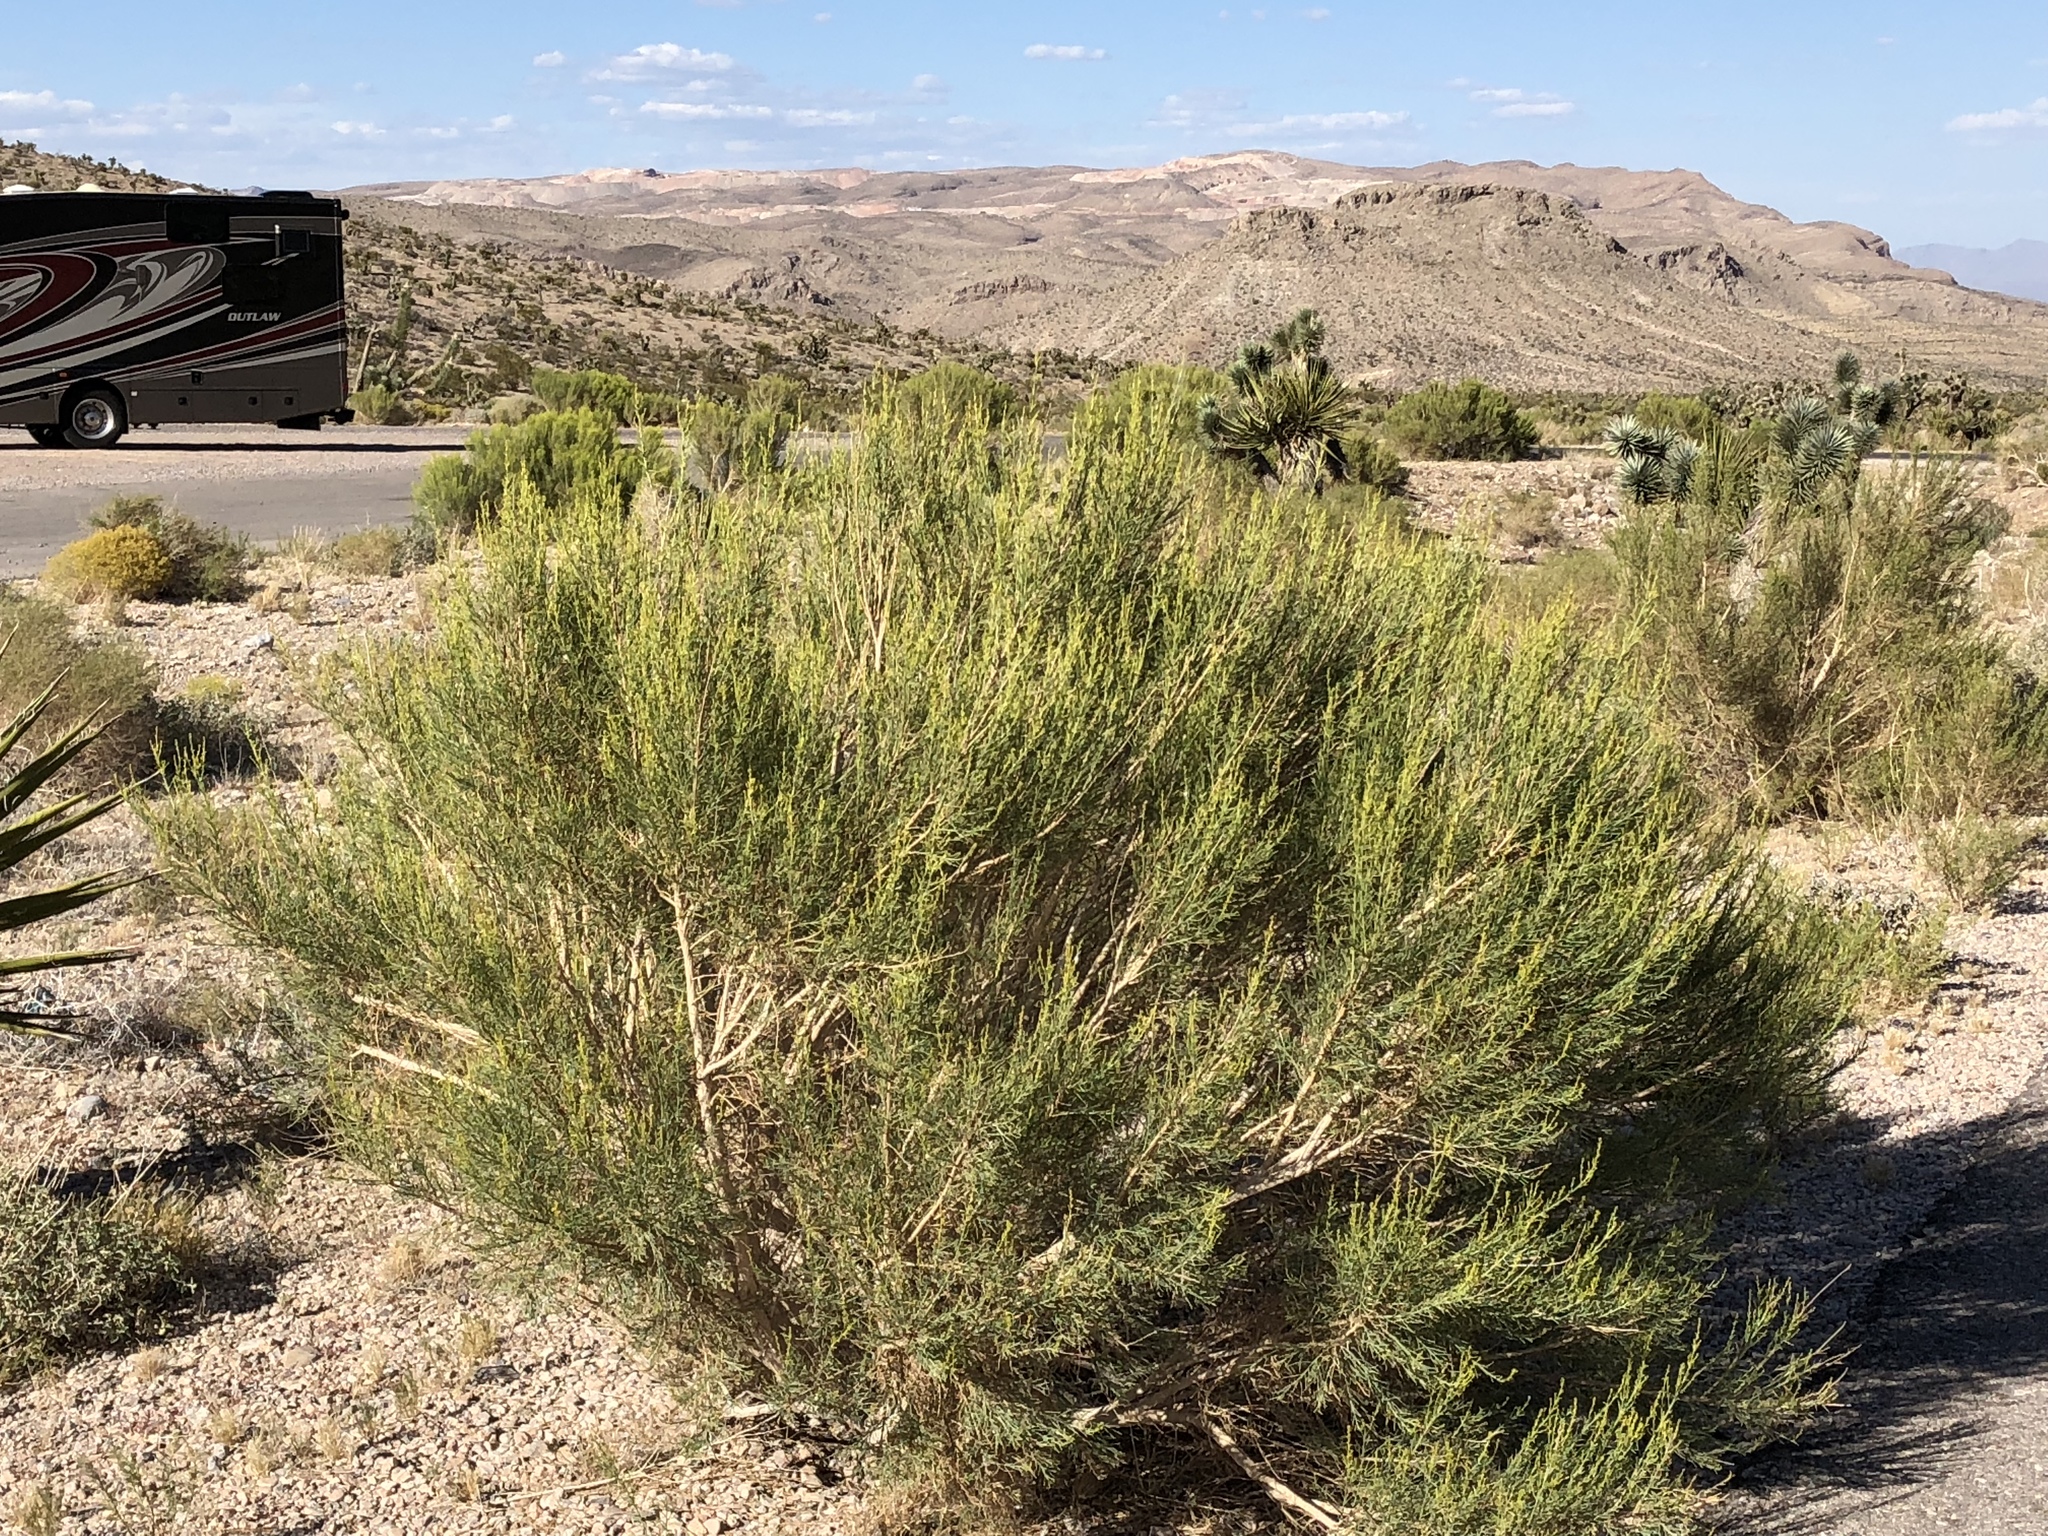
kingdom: Plantae
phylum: Tracheophyta
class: Magnoliopsida
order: Asterales
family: Asteraceae
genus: Baccharis
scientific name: Baccharis sarothroides
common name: Desert-broom
